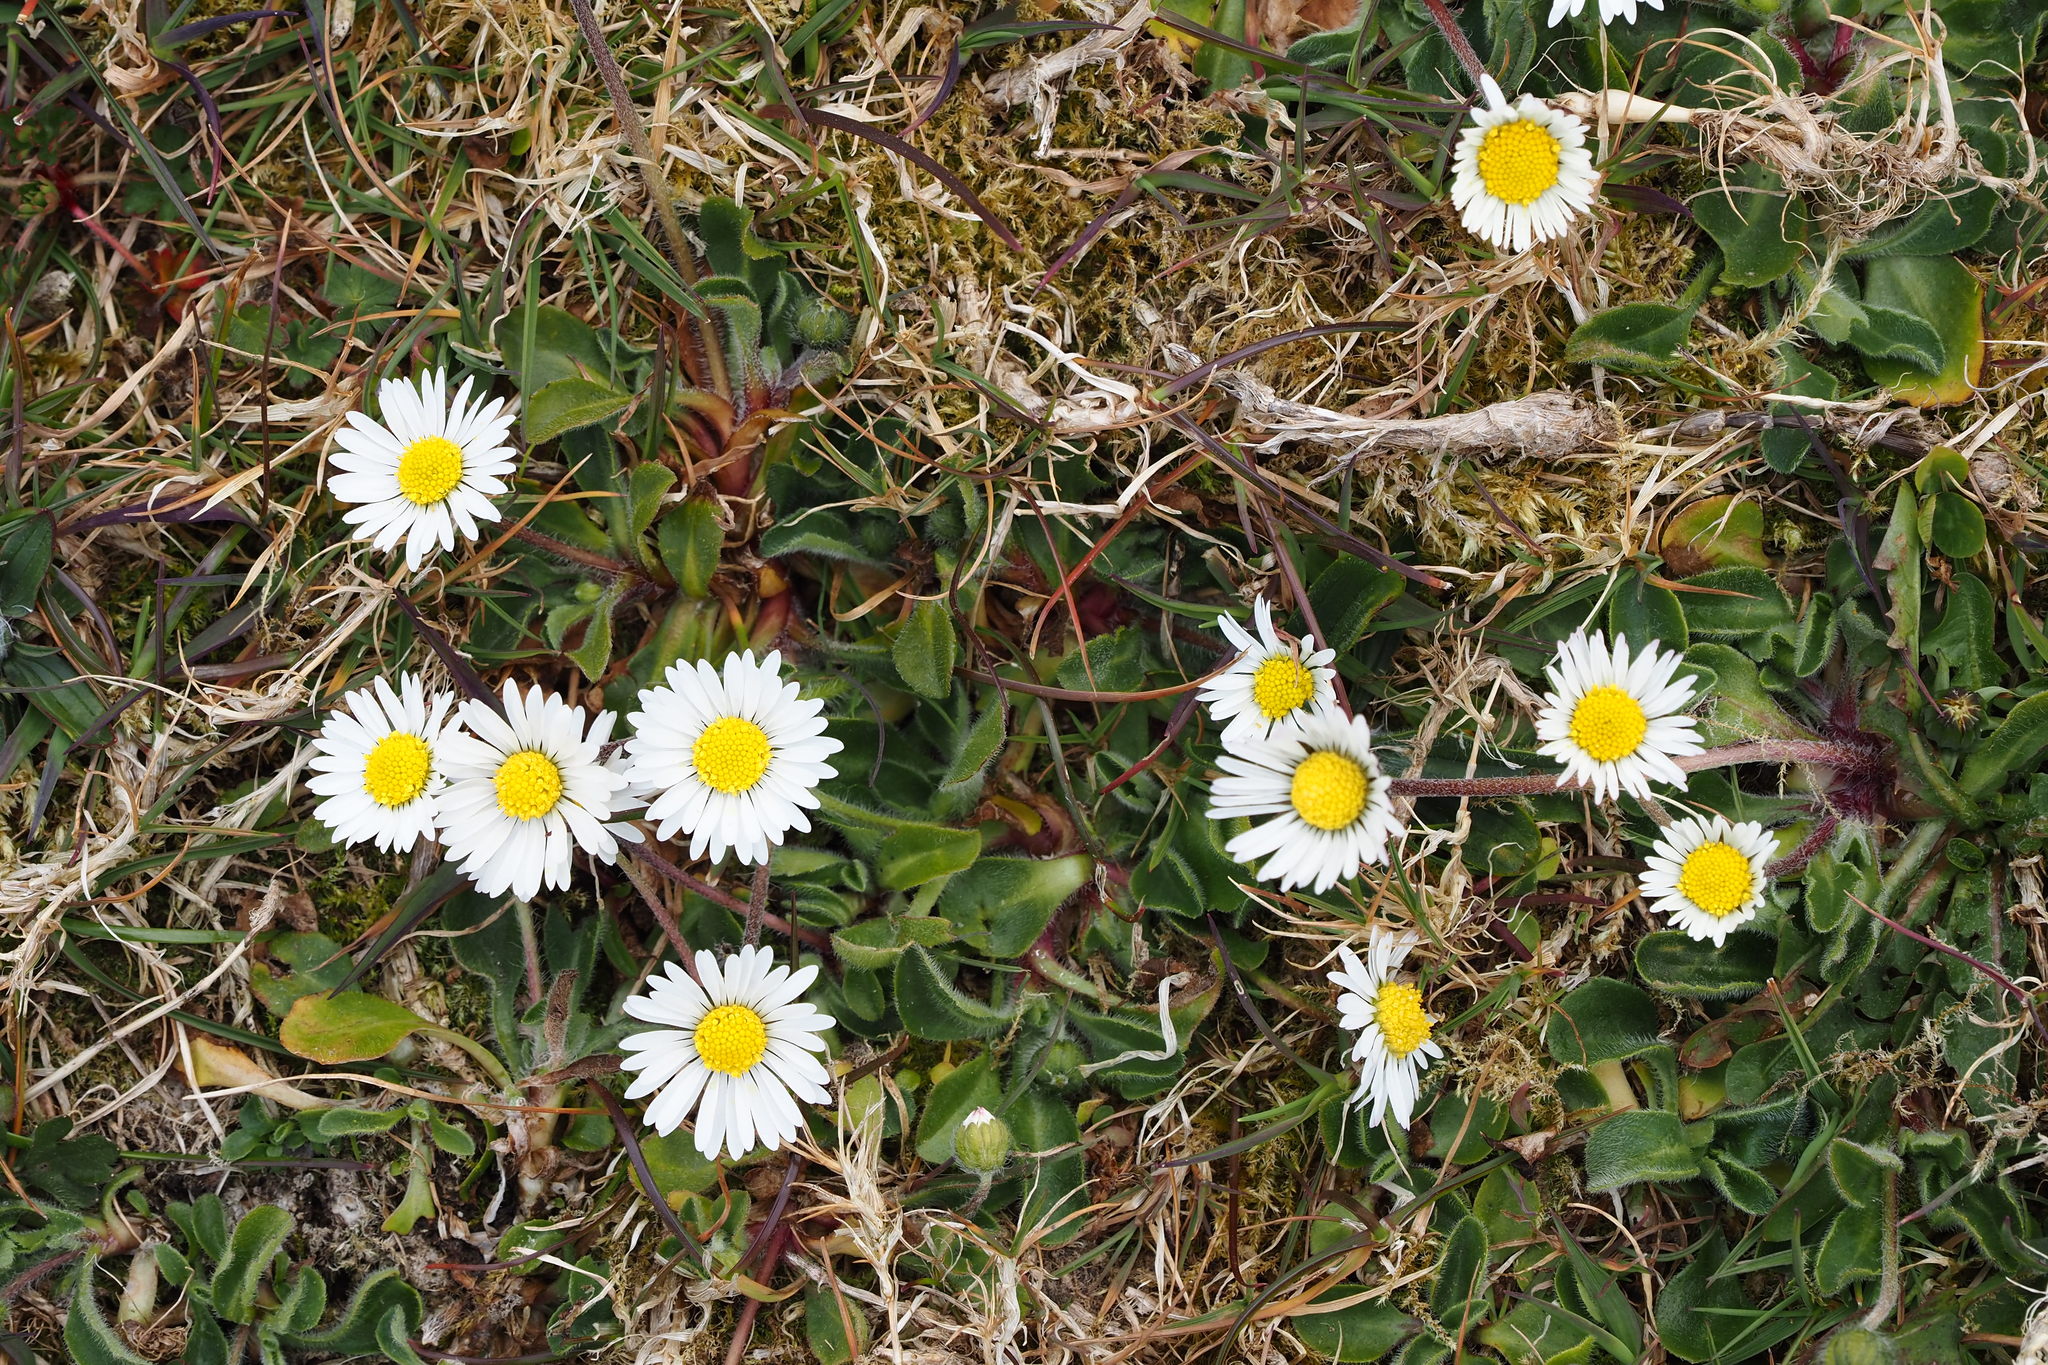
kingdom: Plantae
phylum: Tracheophyta
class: Magnoliopsida
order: Asterales
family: Asteraceae
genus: Bellis
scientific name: Bellis perennis
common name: Lawndaisy
